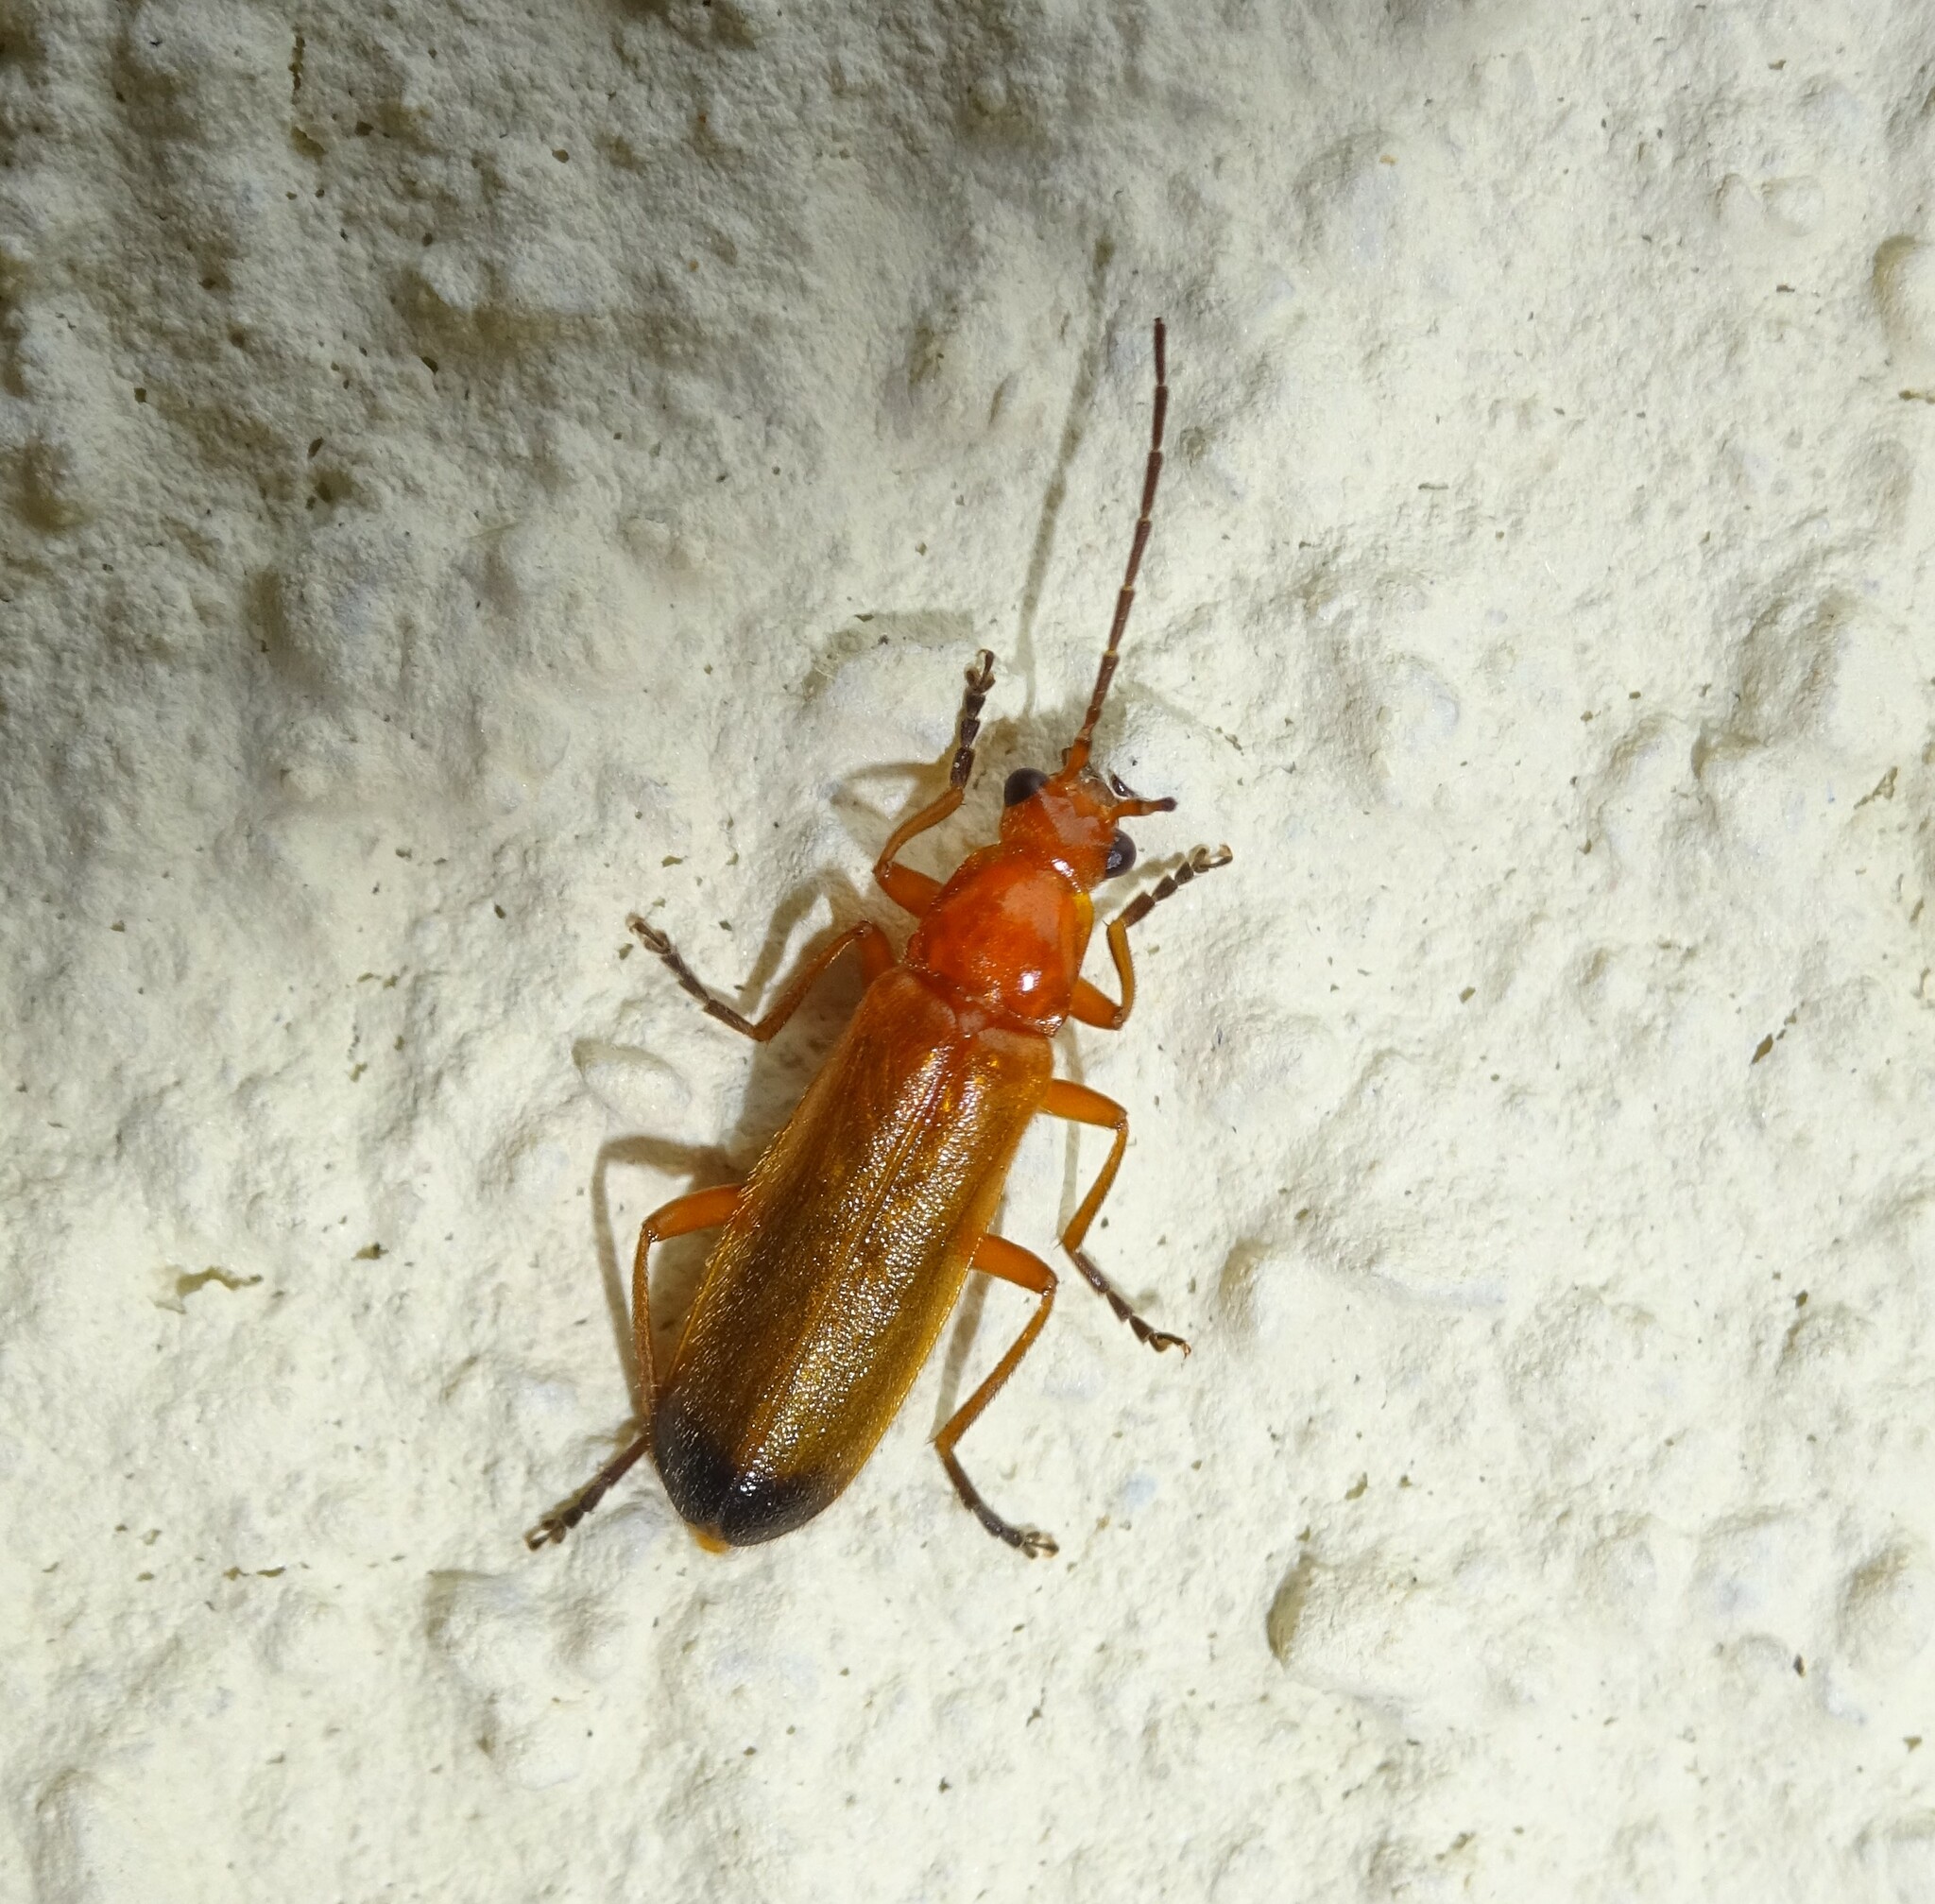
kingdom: Animalia
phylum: Arthropoda
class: Insecta
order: Coleoptera
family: Cantharidae
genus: Rhagonycha
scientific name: Rhagonycha fulva
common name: Common red soldier beetle
